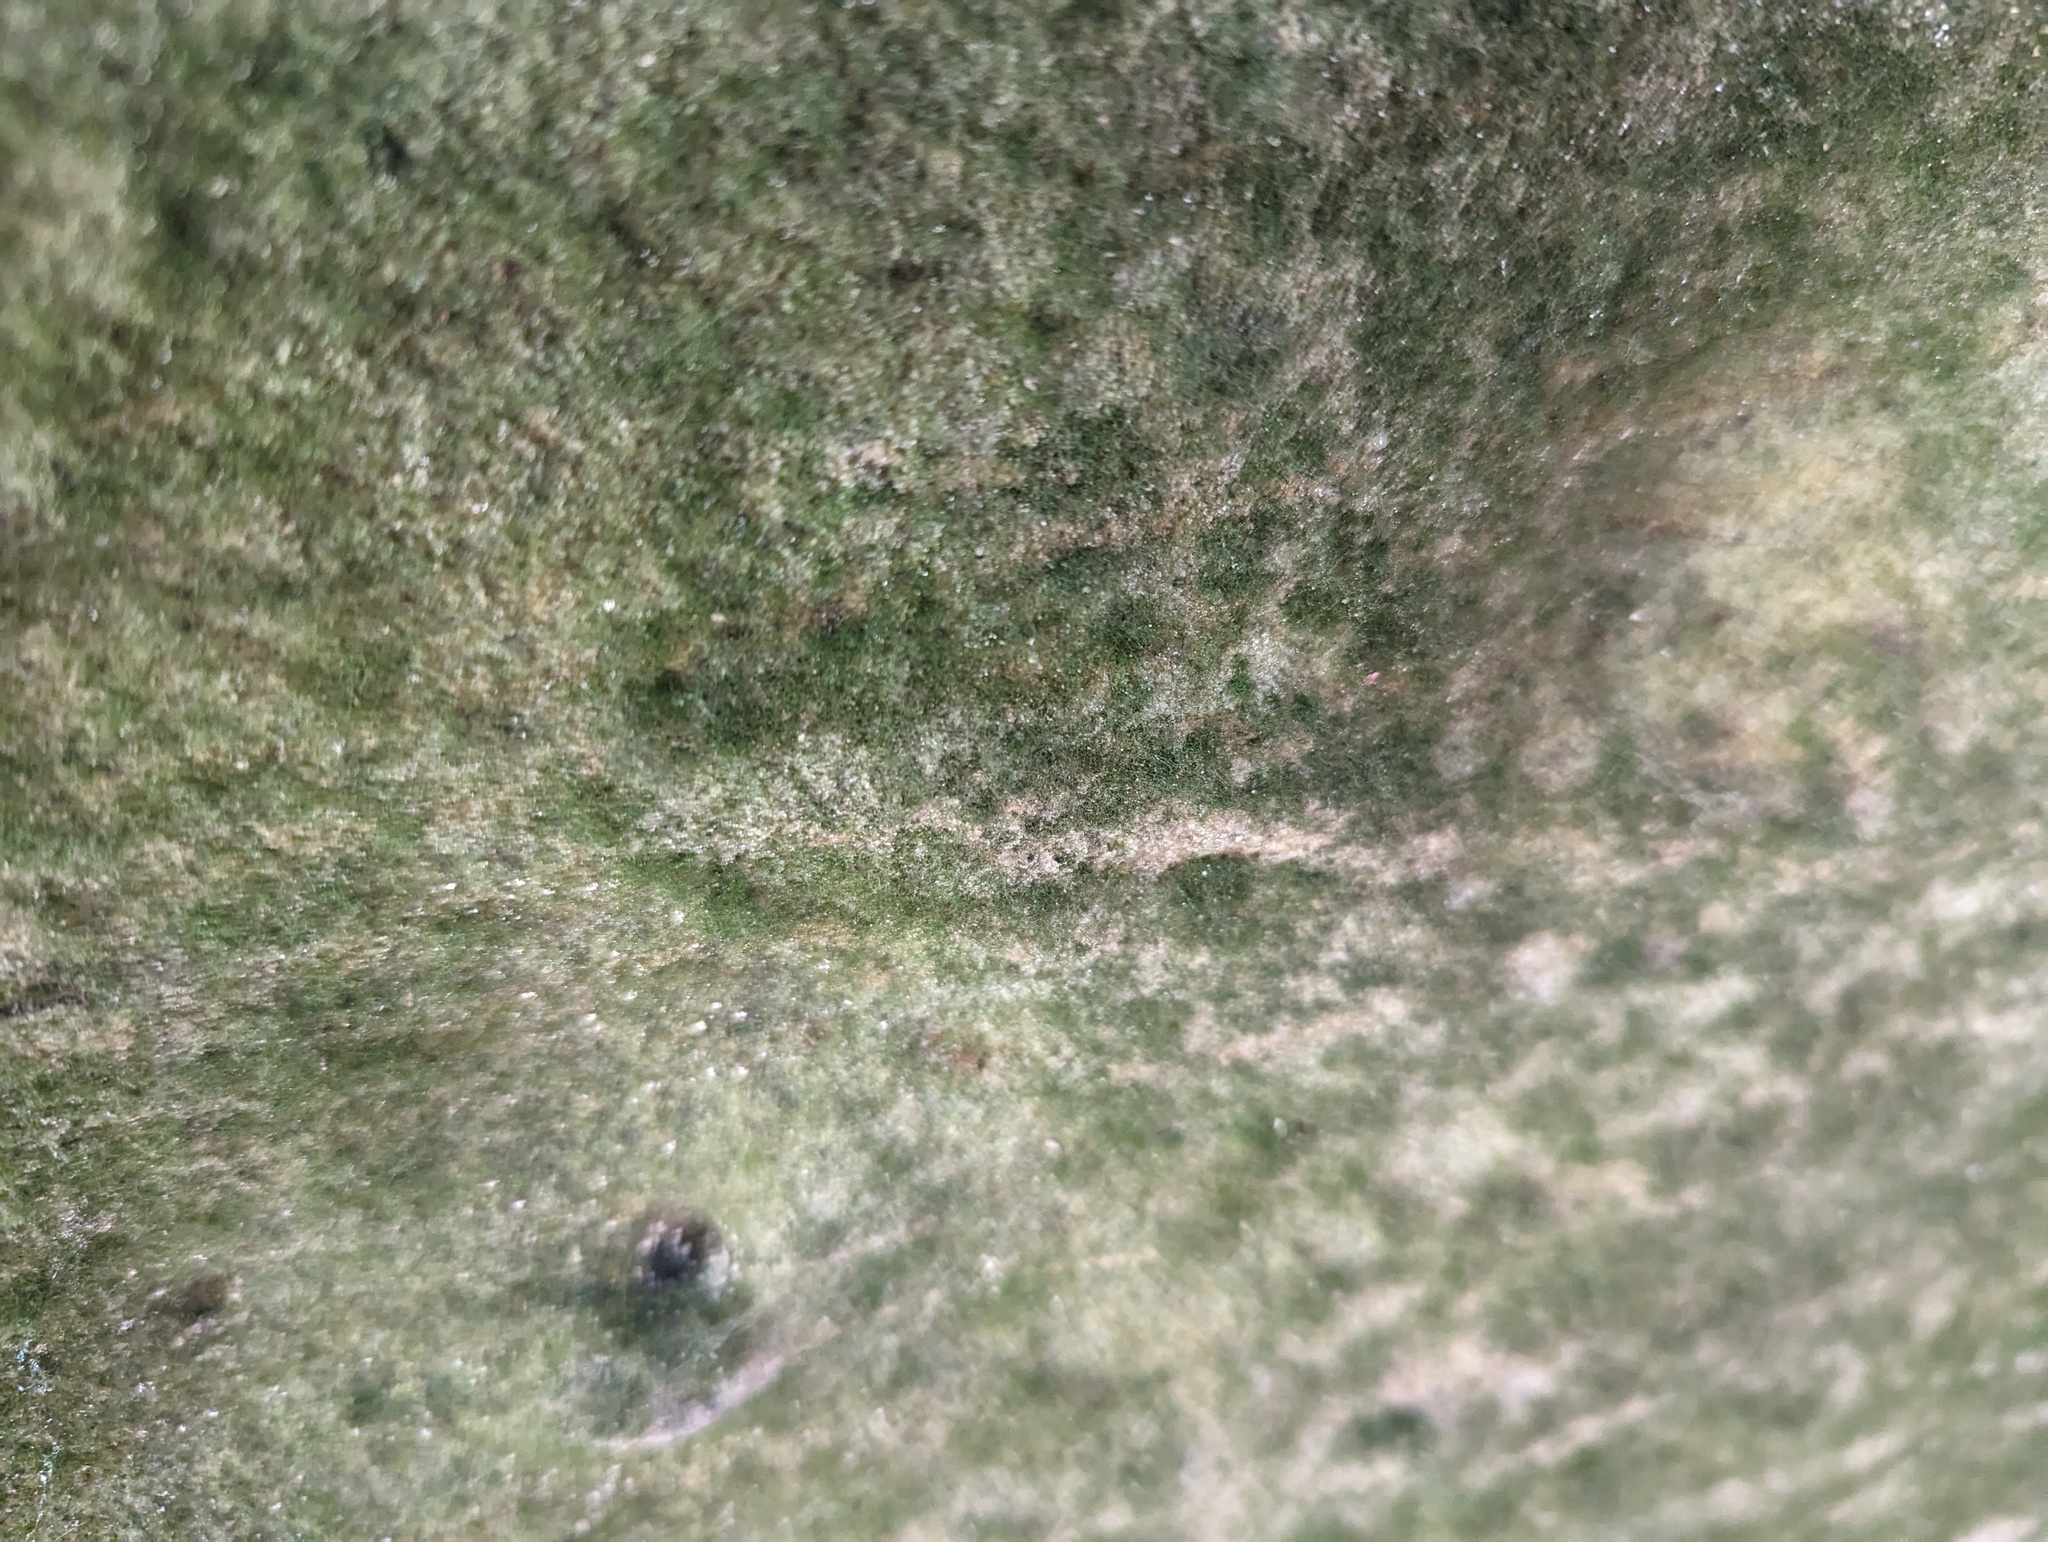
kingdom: Plantae
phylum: Tracheophyta
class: Polypodiopsida
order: Hymenophyllales
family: Hymenophyllaceae
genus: Crepidomanes
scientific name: Crepidomanes intricatum
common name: Weft fern
